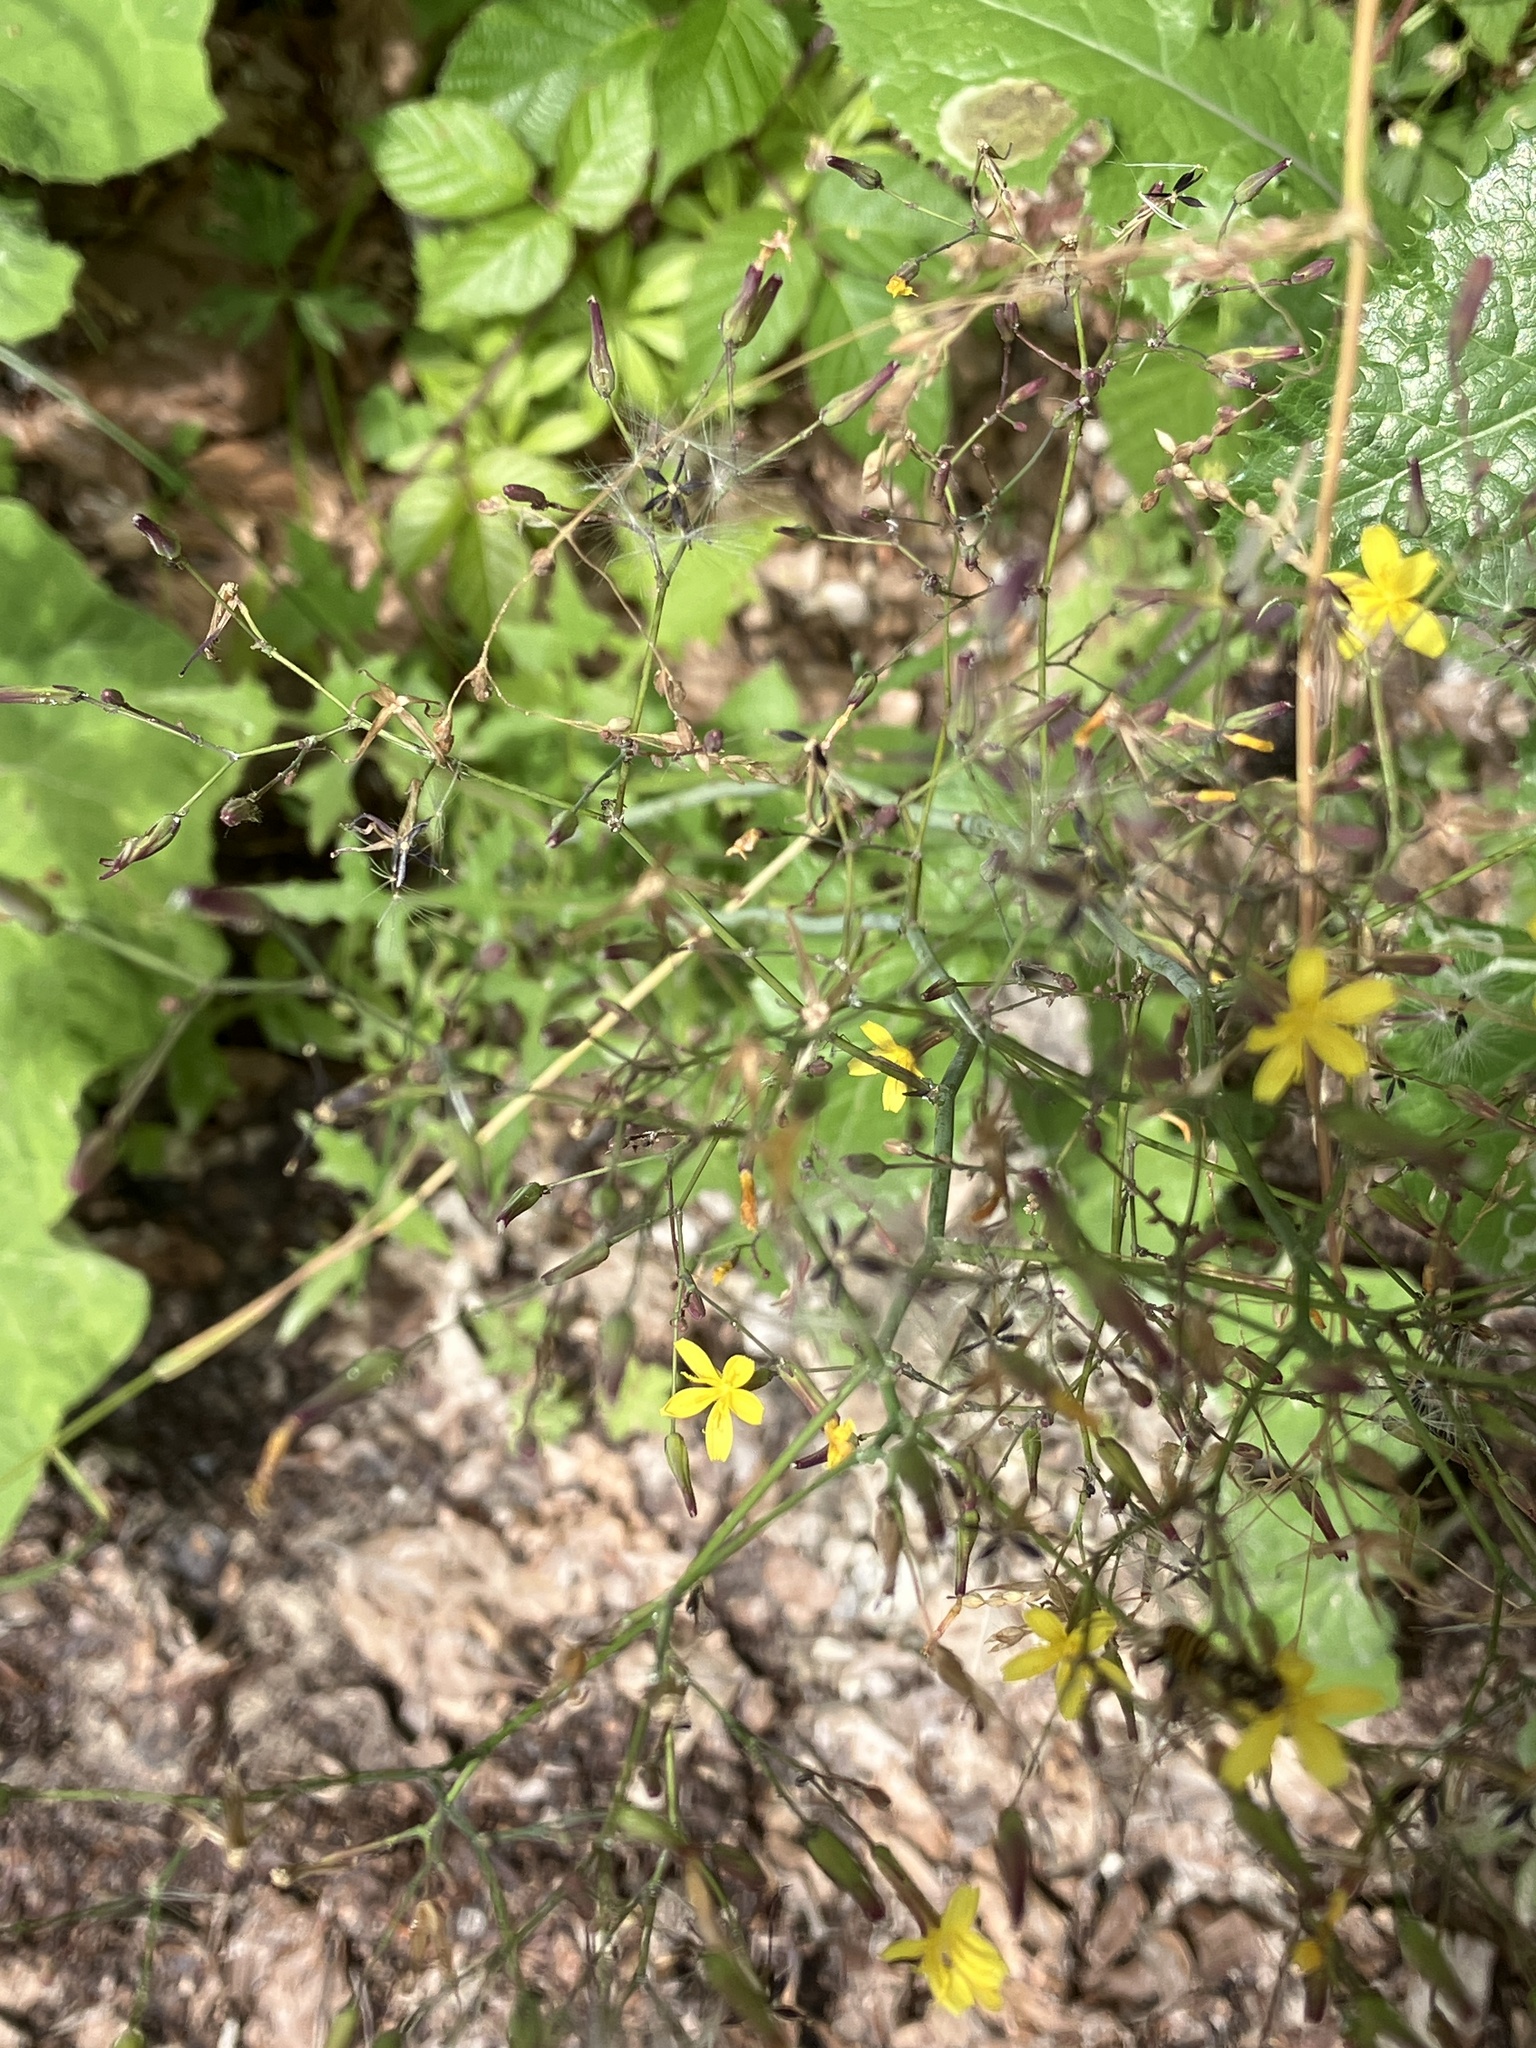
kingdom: Plantae
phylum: Tracheophyta
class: Magnoliopsida
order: Asterales
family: Asteraceae
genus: Mycelis
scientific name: Mycelis muralis
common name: Wall lettuce
